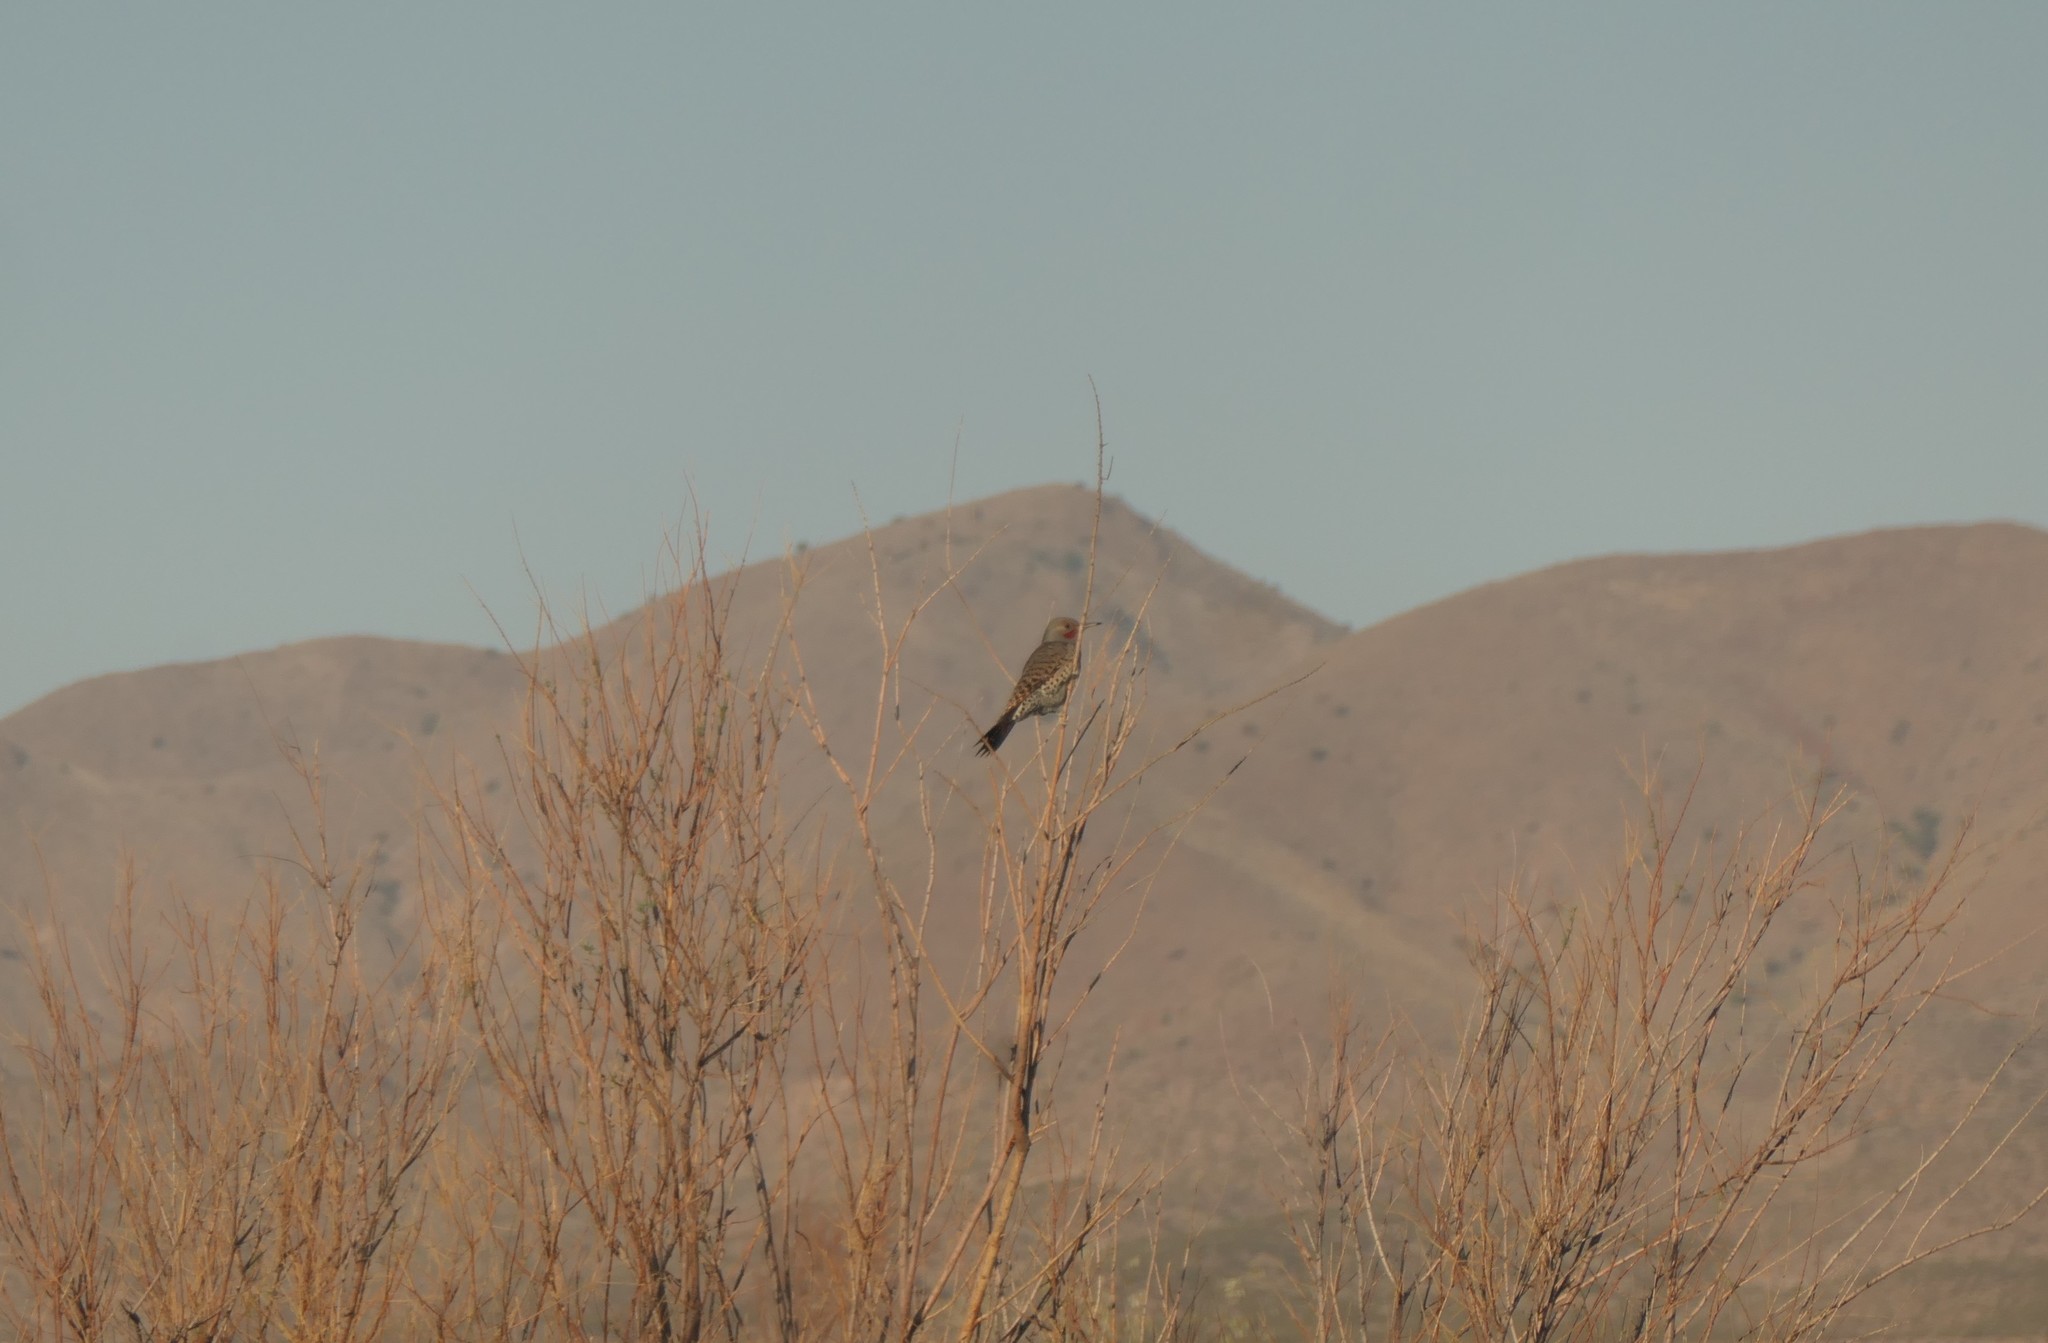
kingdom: Animalia
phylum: Chordata
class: Aves
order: Piciformes
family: Picidae
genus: Colaptes
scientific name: Colaptes auratus
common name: Northern flicker
